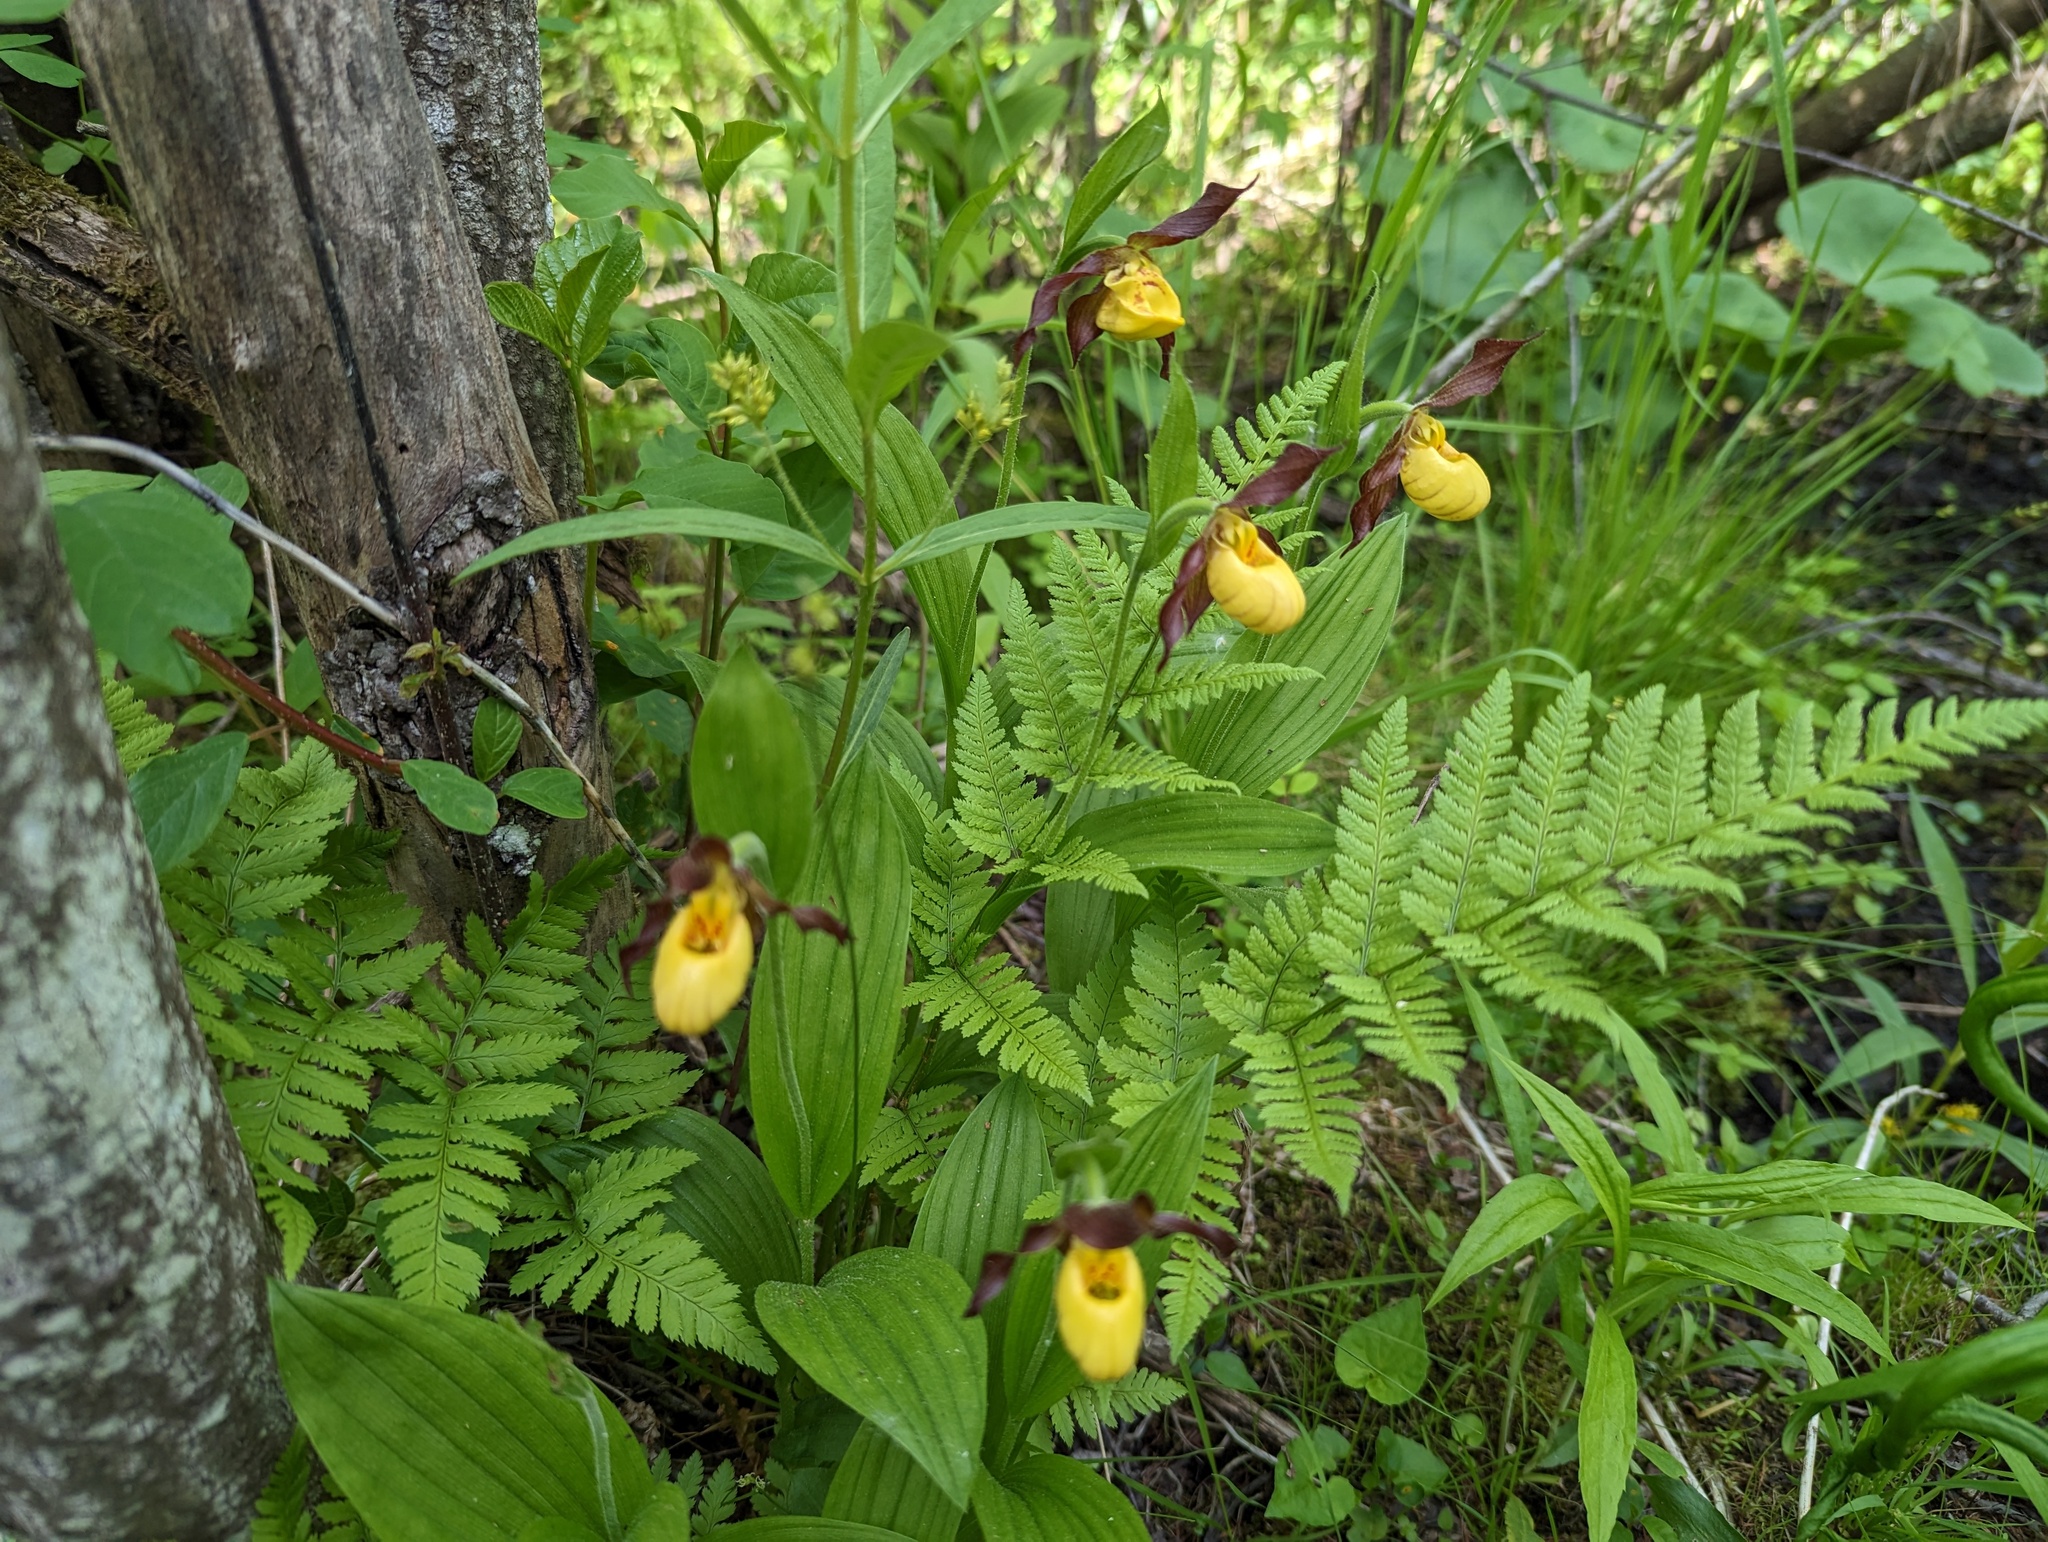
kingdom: Plantae
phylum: Tracheophyta
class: Liliopsida
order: Asparagales
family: Orchidaceae
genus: Cypripedium
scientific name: Cypripedium parviflorum
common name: American yellow lady's-slipper
